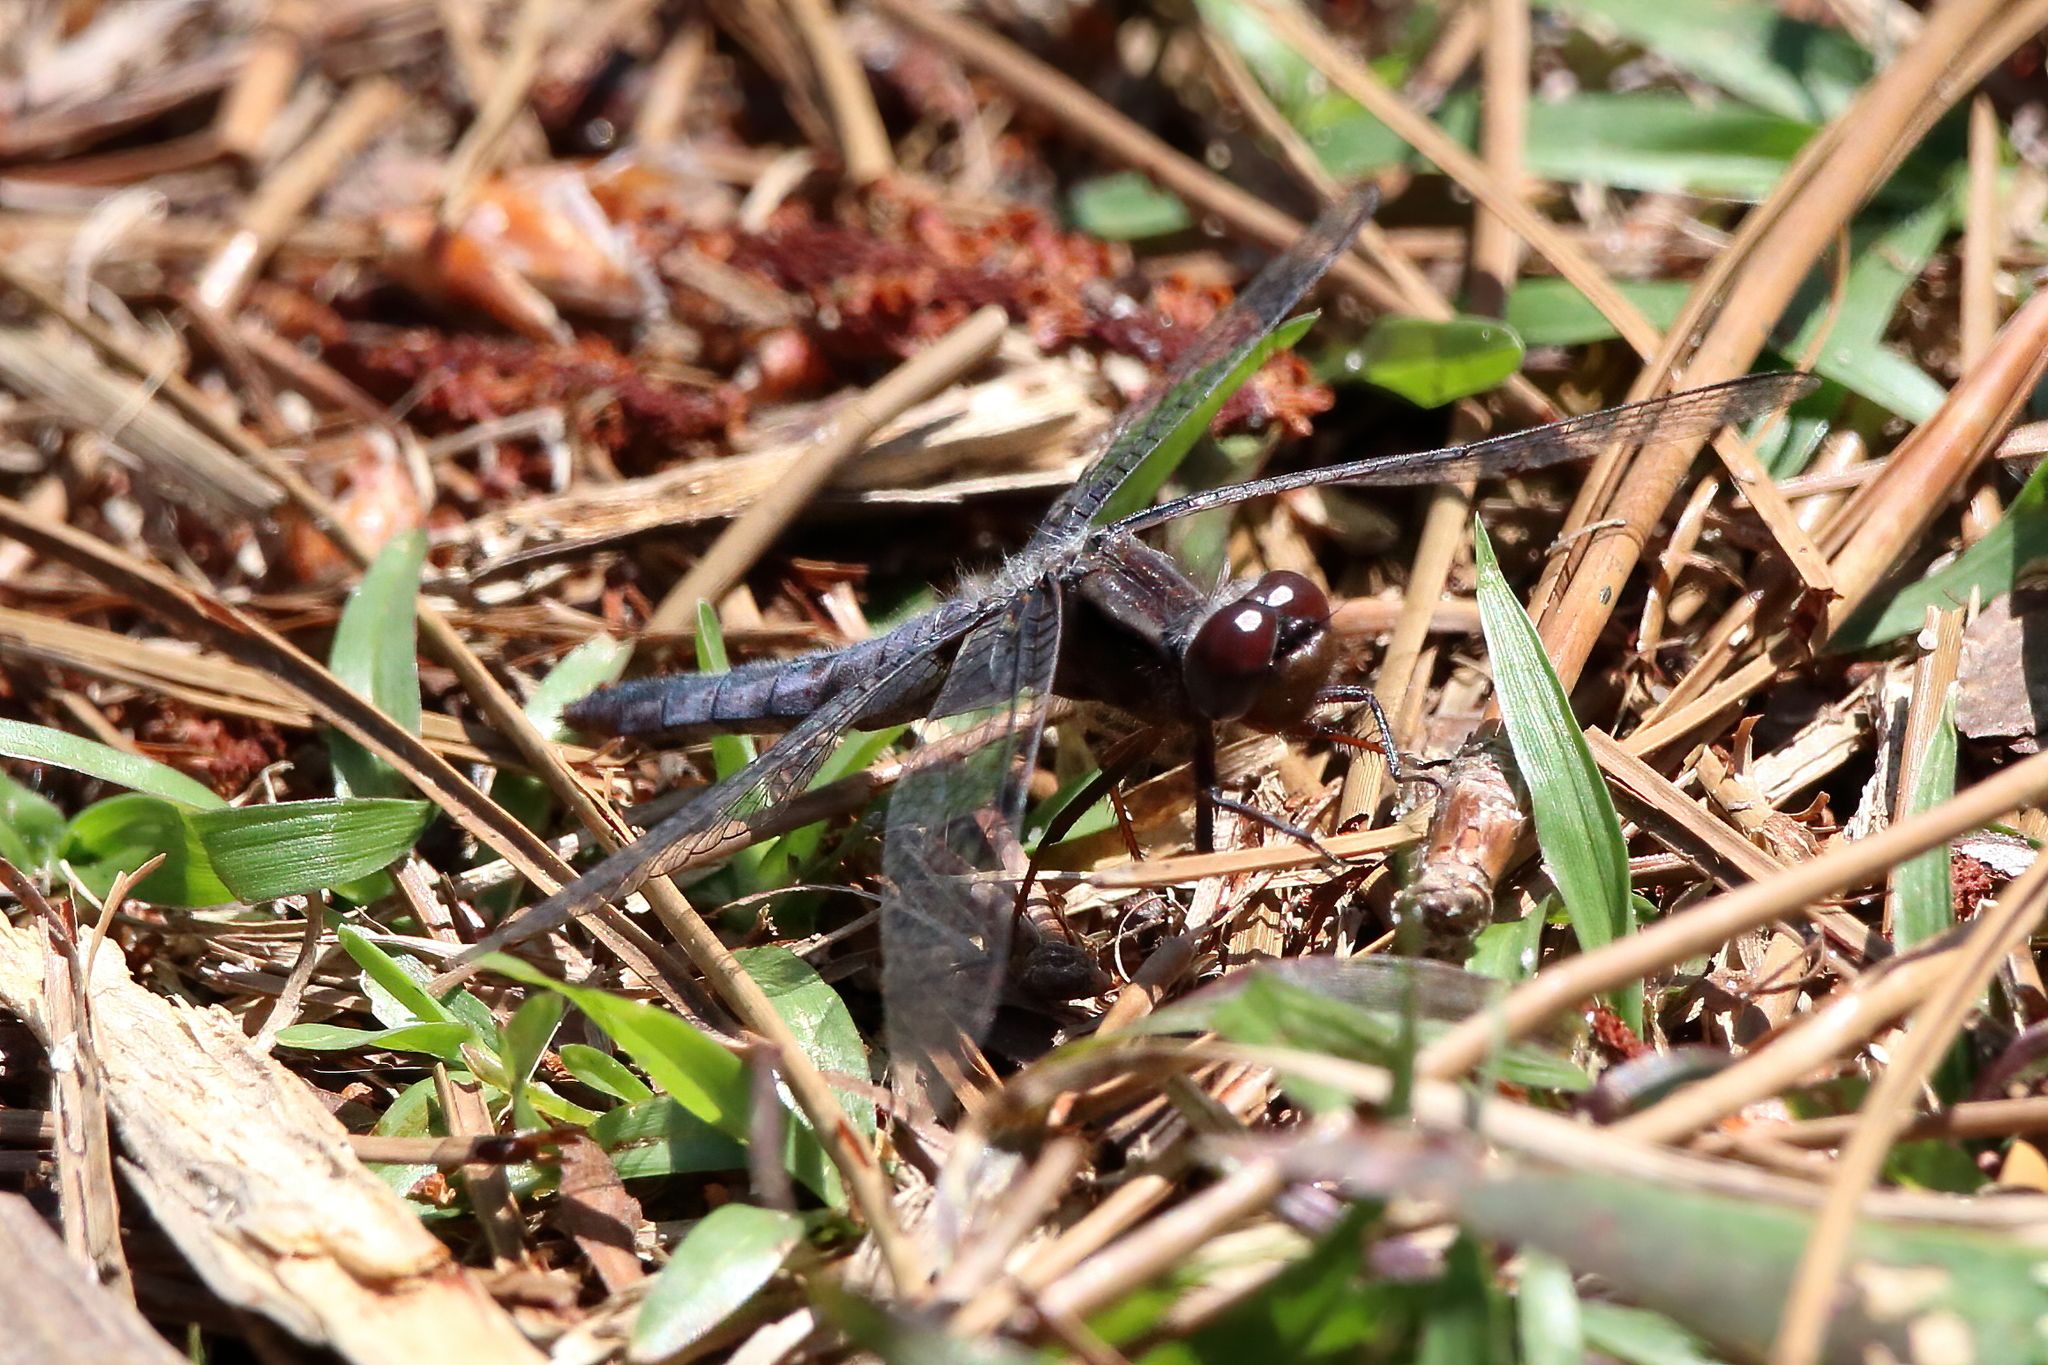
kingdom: Animalia
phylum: Arthropoda
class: Insecta
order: Odonata
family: Libellulidae
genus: Ladona
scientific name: Ladona deplanata
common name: Blue corporal
